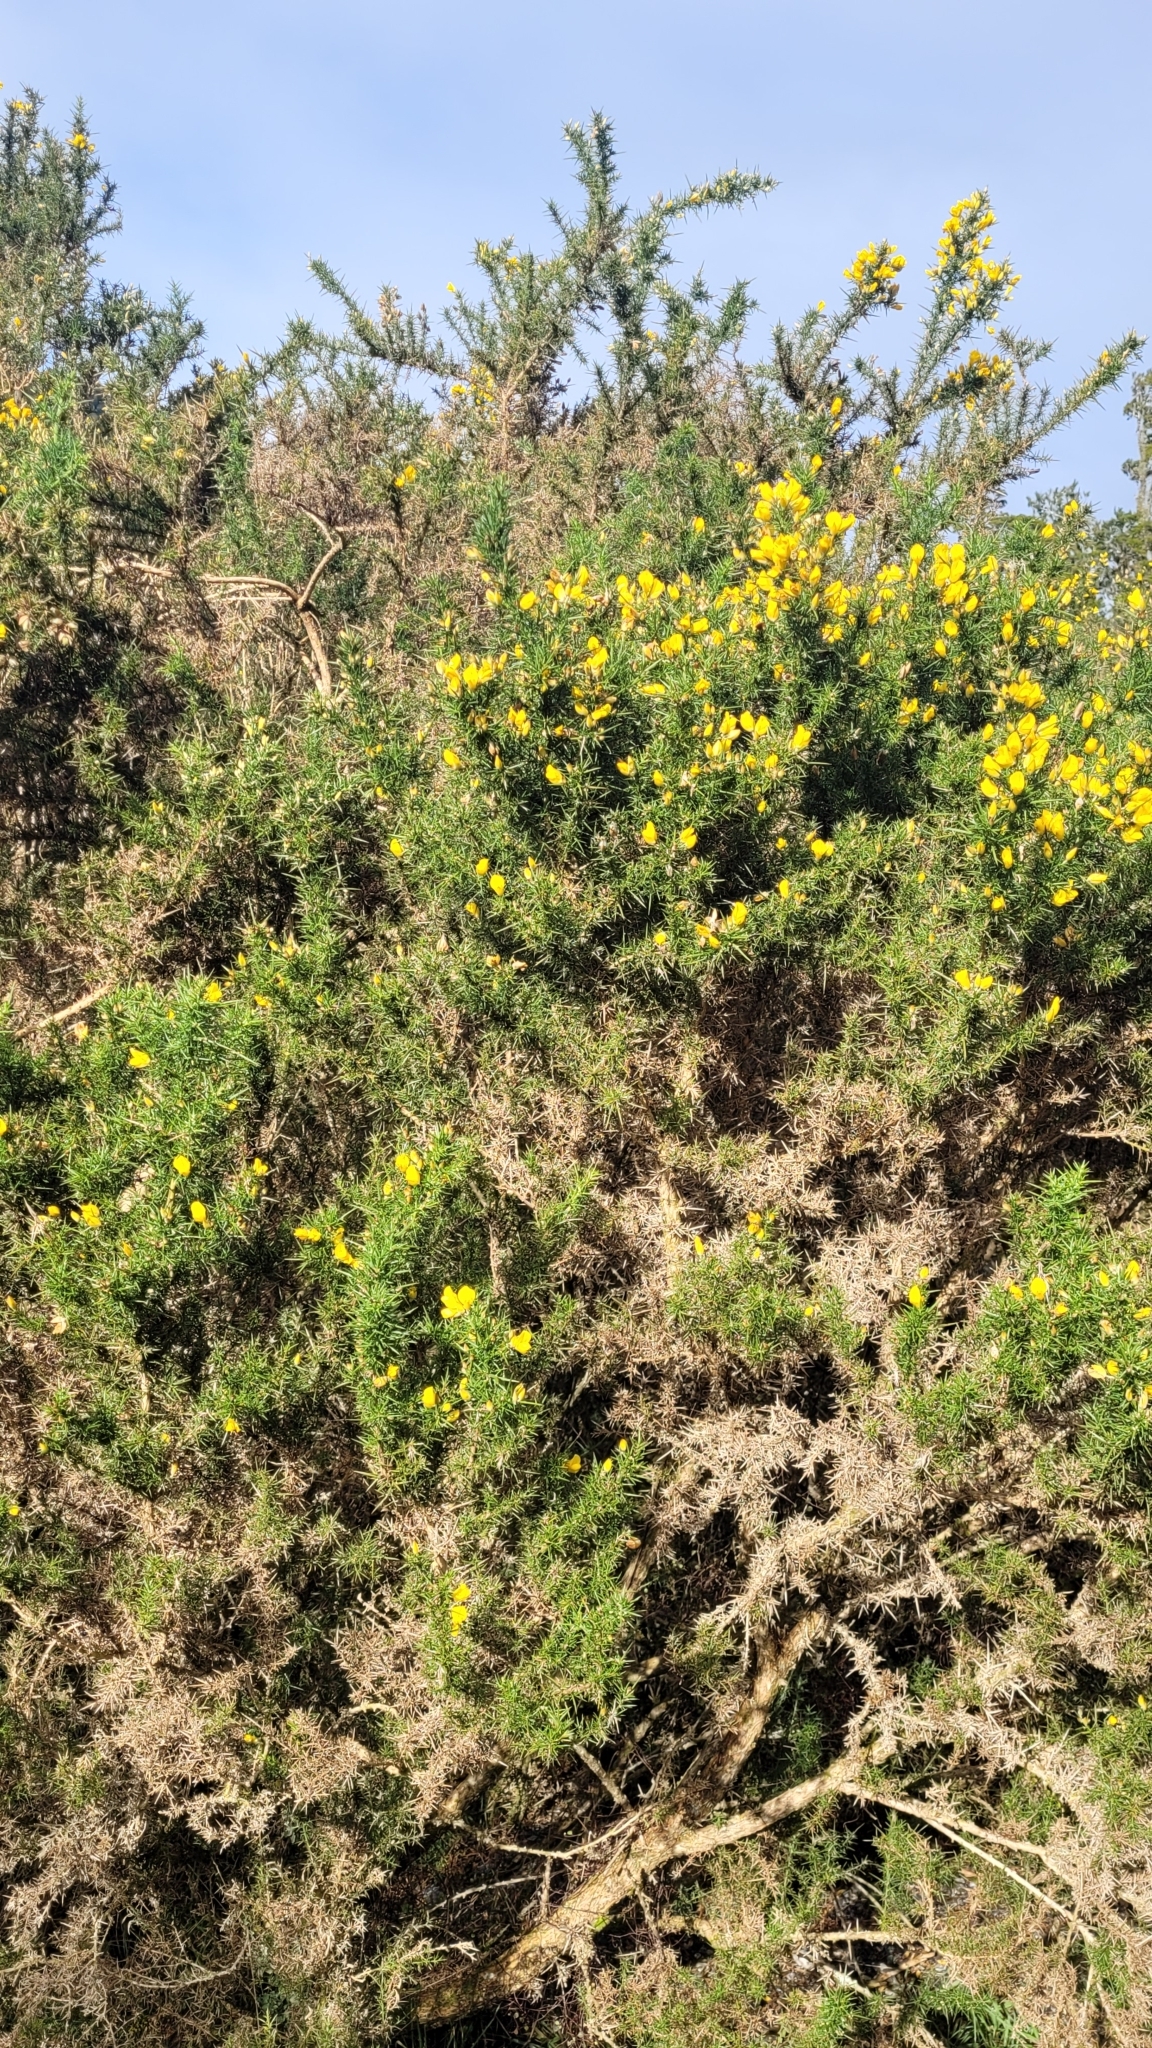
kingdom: Plantae
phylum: Tracheophyta
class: Magnoliopsida
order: Fabales
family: Fabaceae
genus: Ulex
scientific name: Ulex europaeus
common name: Common gorse
